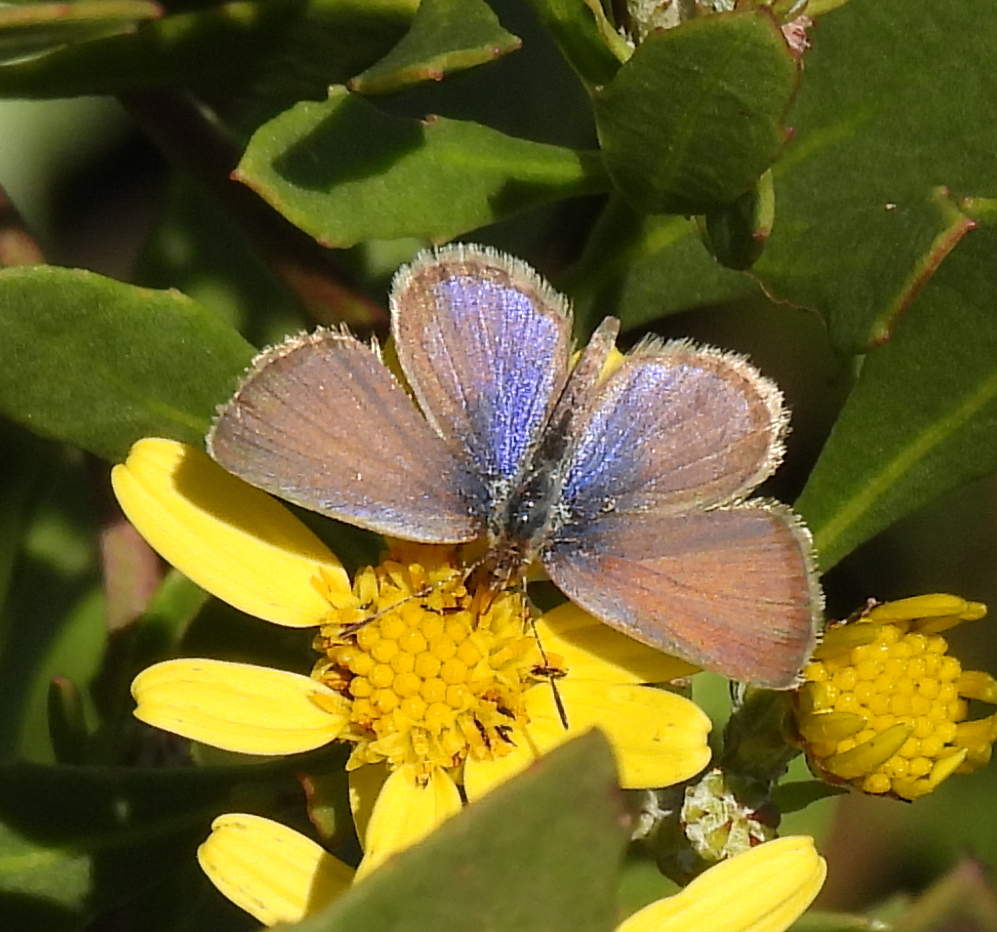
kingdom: Animalia
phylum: Arthropoda
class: Insecta
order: Lepidoptera
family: Lycaenidae
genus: Zizeeria
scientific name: Zizeeria knysna
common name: African grass blue
